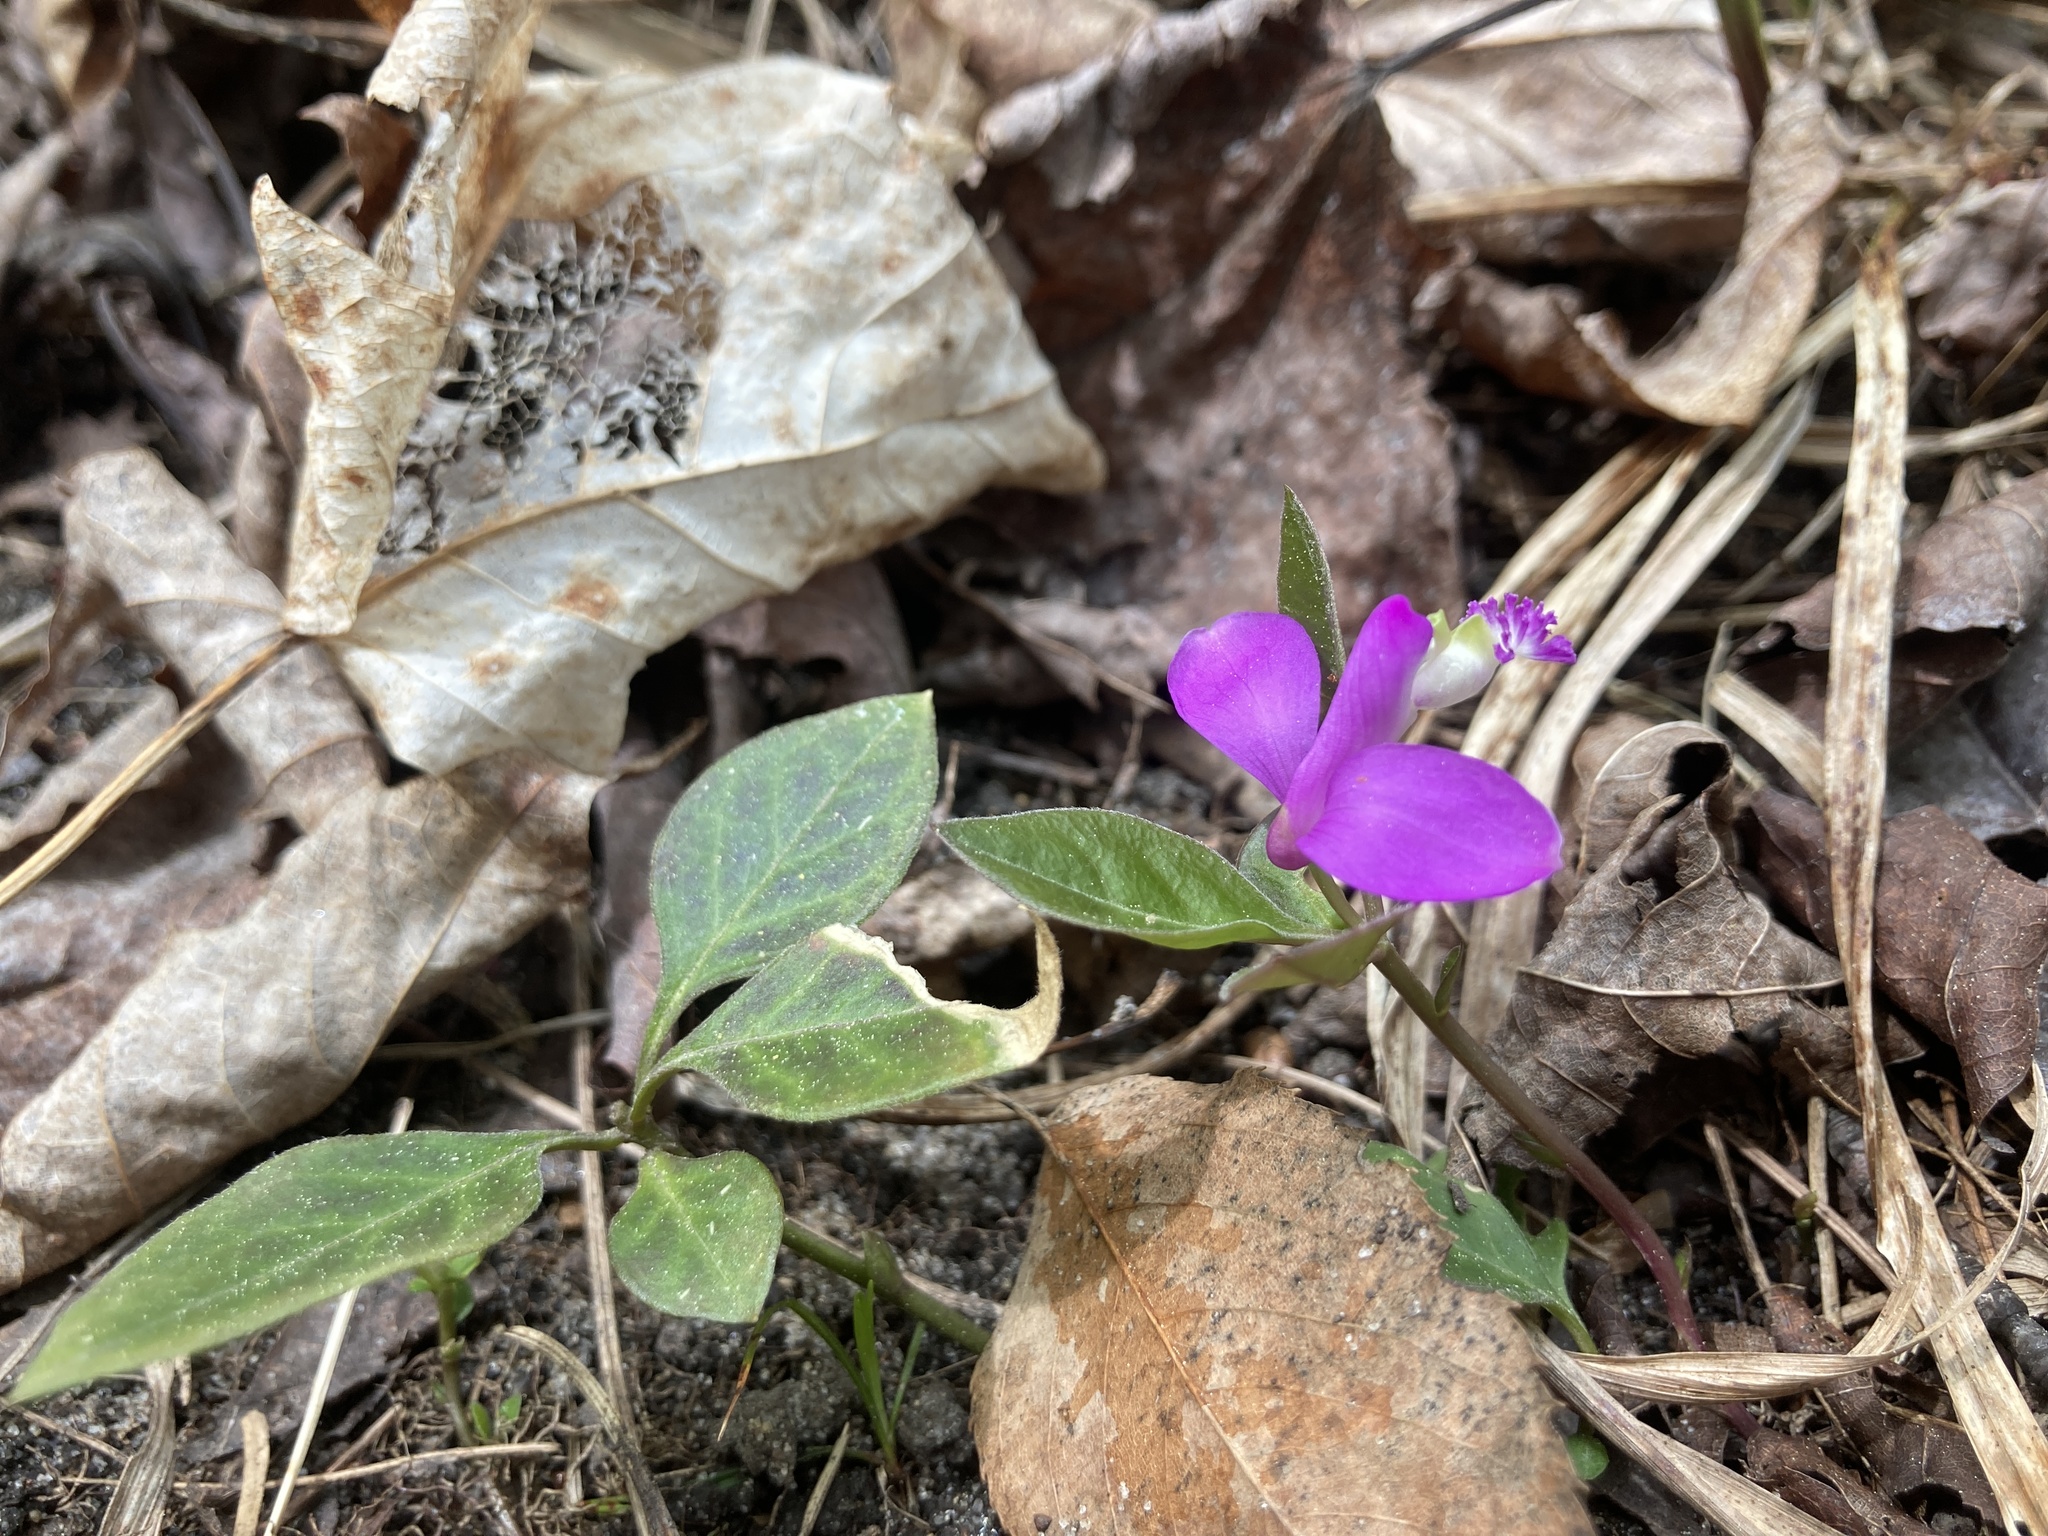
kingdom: Plantae
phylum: Tracheophyta
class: Magnoliopsida
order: Fabales
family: Polygalaceae
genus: Polygaloides
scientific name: Polygaloides paucifolia
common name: Bird-on-the-wing
